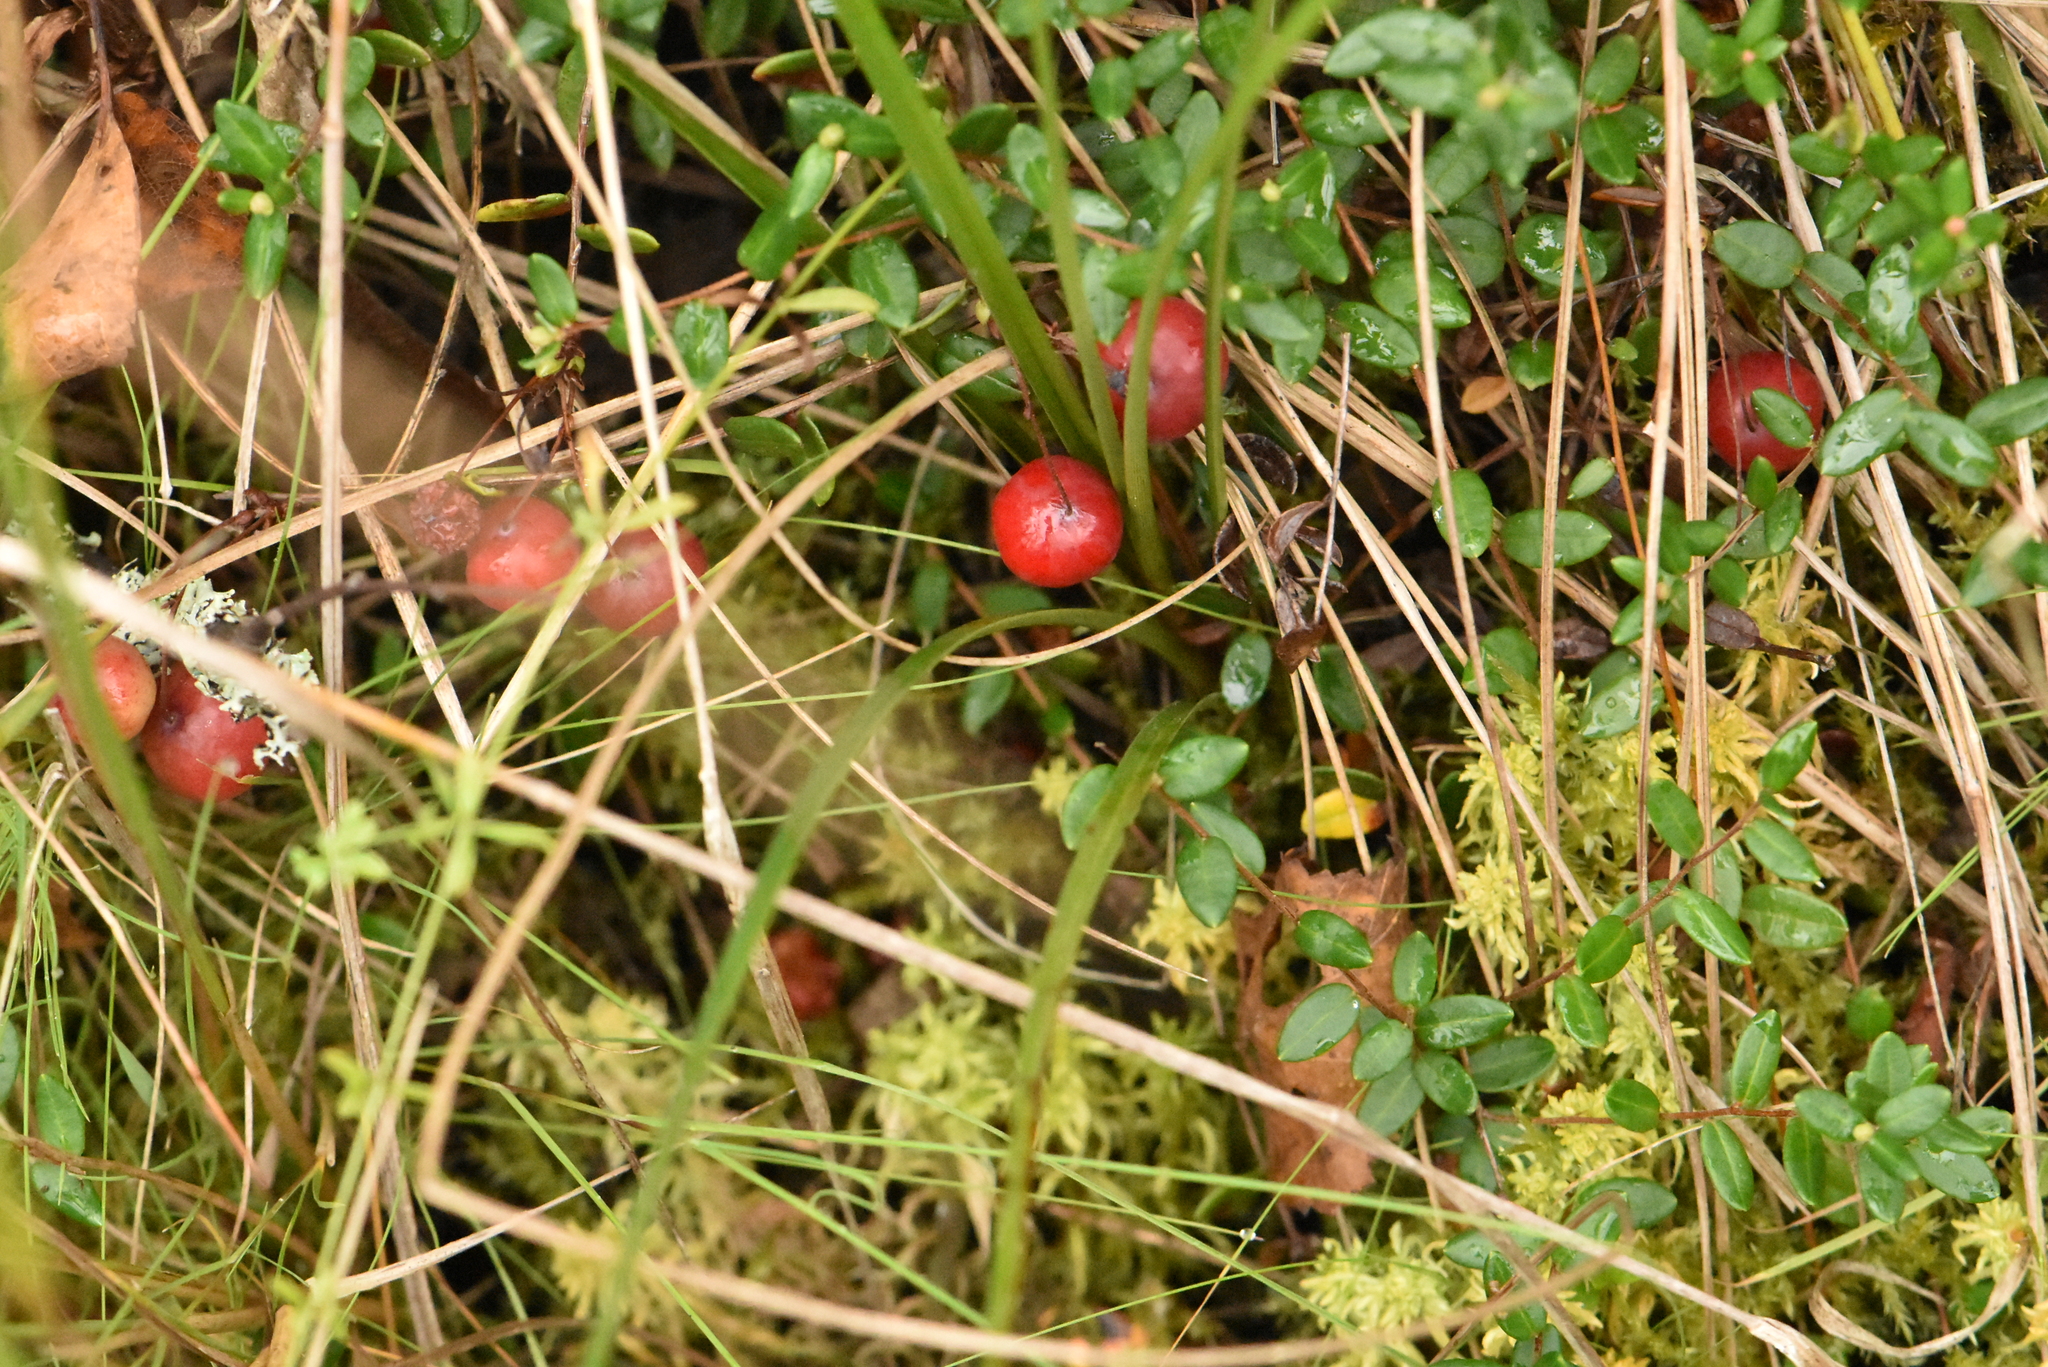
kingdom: Plantae
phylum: Tracheophyta
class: Magnoliopsida
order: Ericales
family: Ericaceae
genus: Vaccinium
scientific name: Vaccinium oxycoccos
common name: Cranberry
